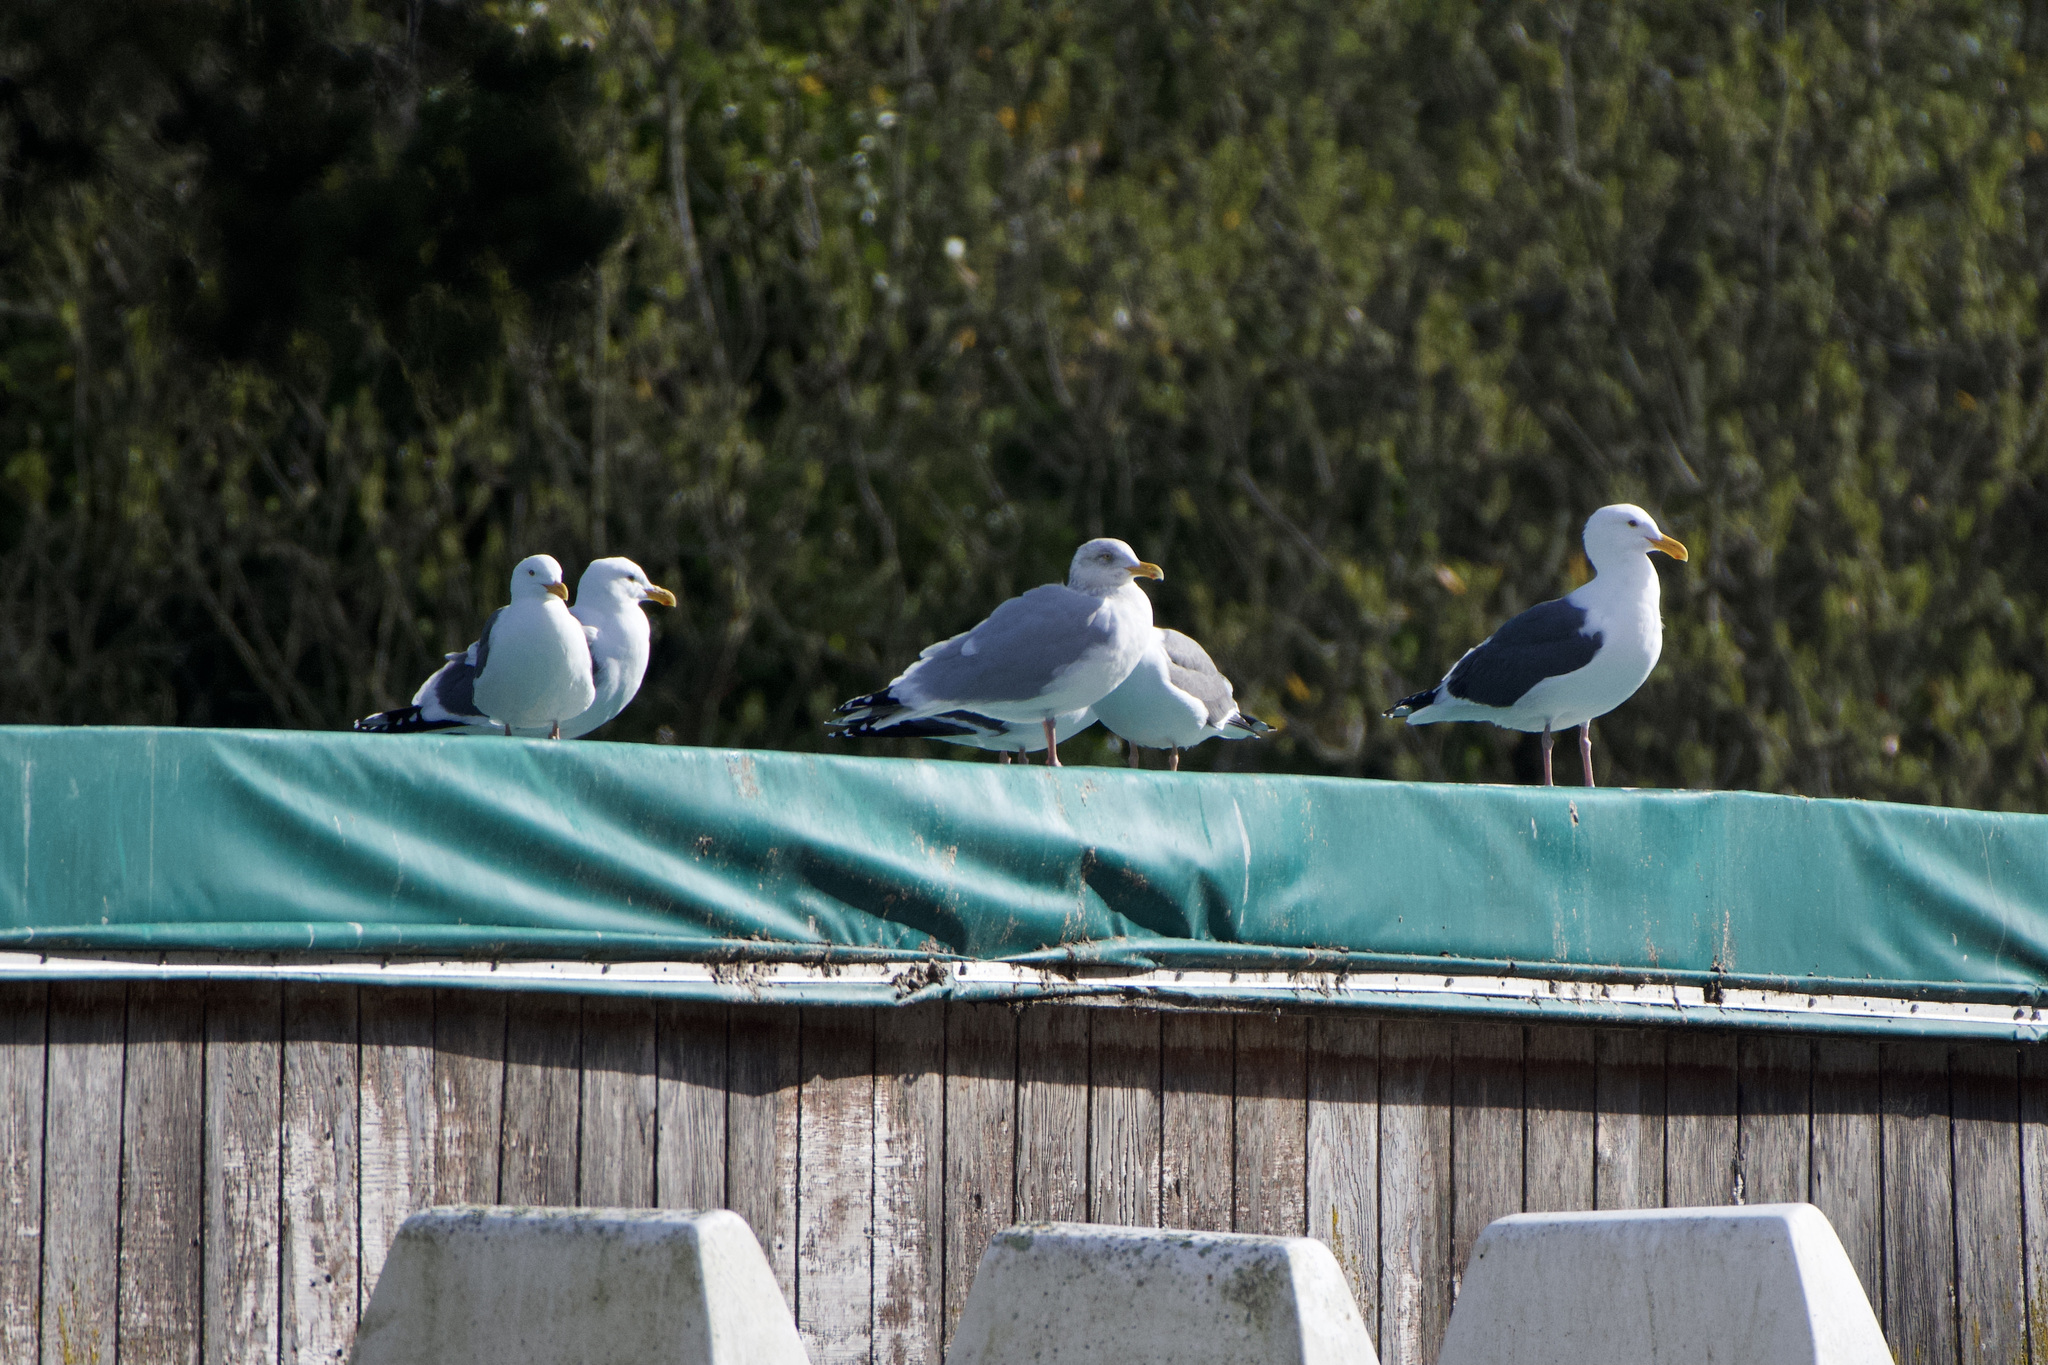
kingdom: Animalia
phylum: Chordata
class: Aves
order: Charadriiformes
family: Laridae
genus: Larus
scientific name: Larus argentatus
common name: Herring gull
